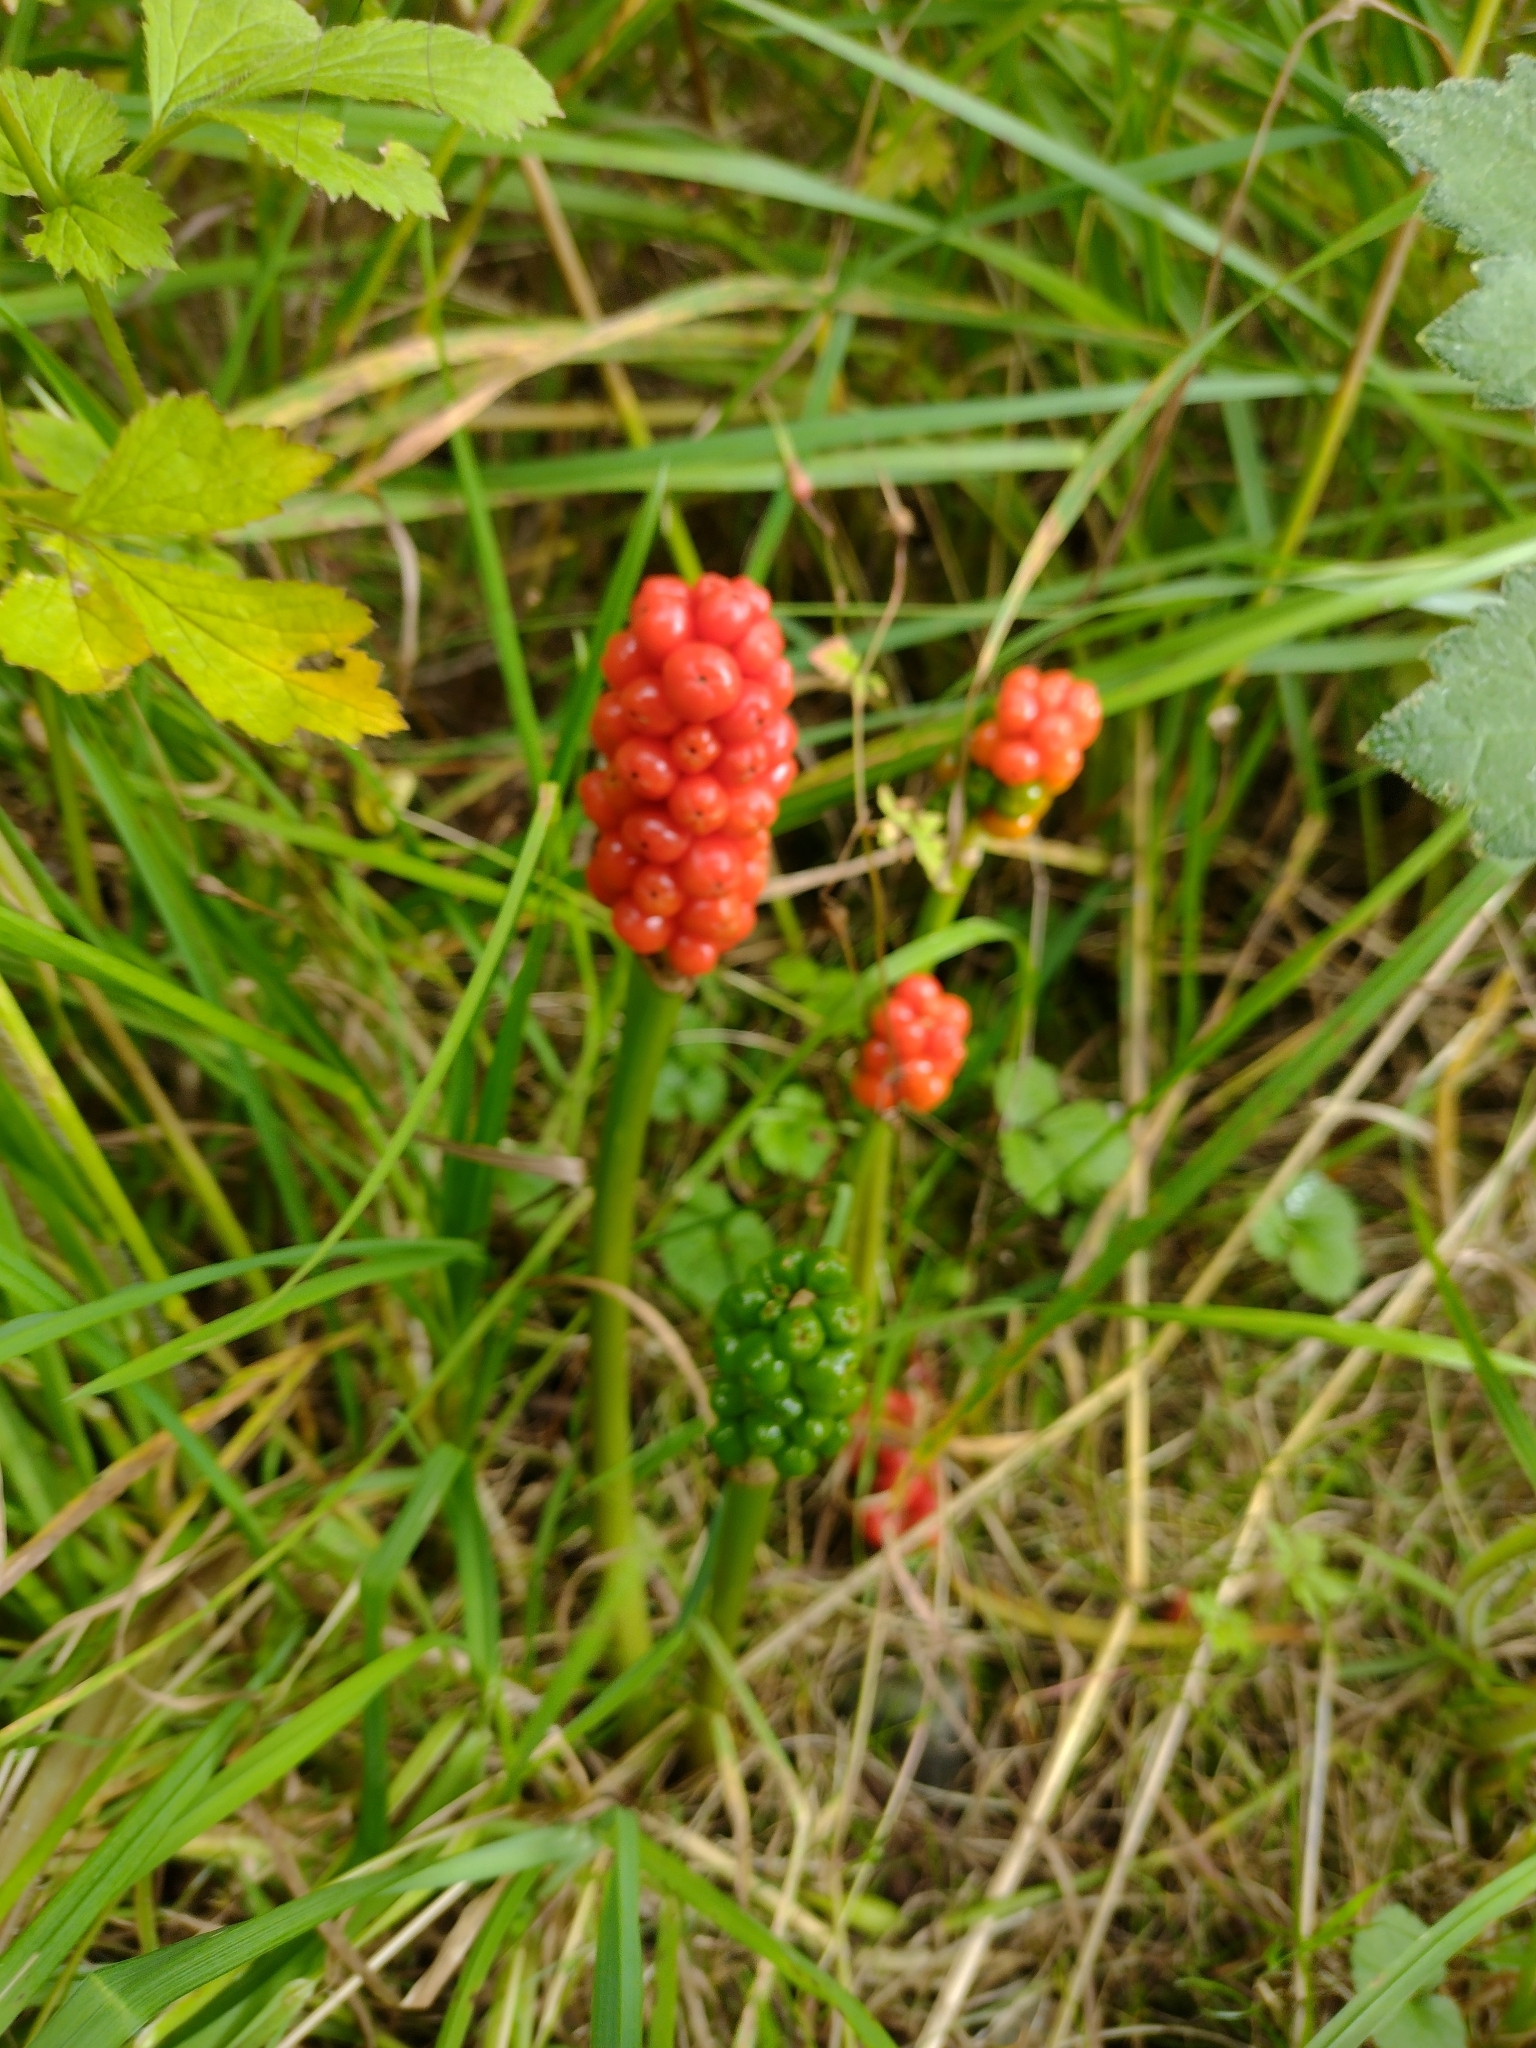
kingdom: Plantae
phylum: Tracheophyta
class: Liliopsida
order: Alismatales
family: Araceae
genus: Arum
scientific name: Arum maculatum
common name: Lords-and-ladies
